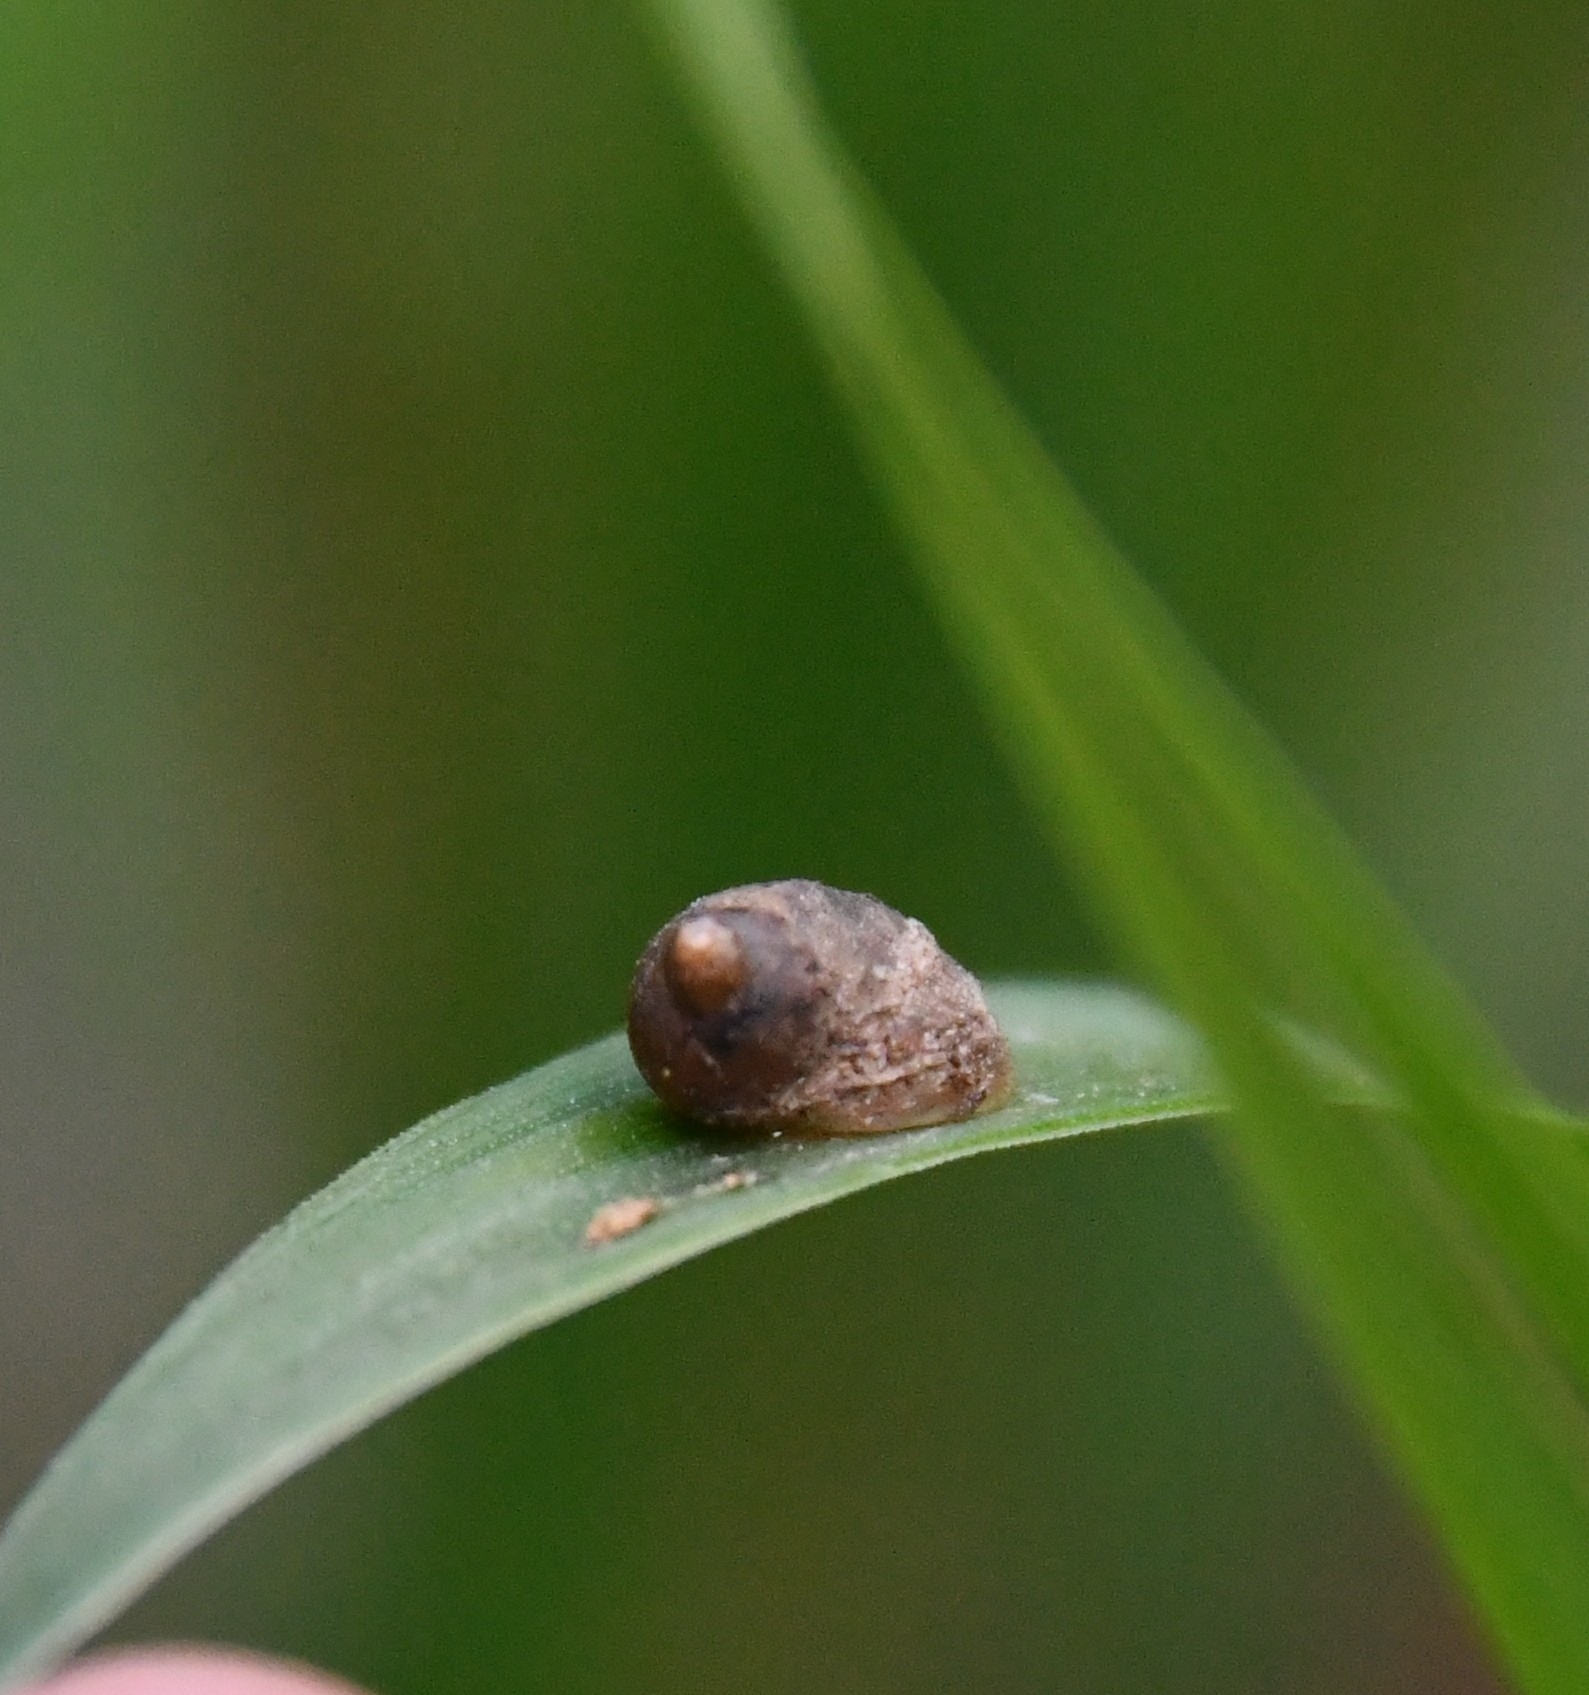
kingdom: Animalia
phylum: Mollusca
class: Gastropoda
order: Stylommatophora
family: Succineidae
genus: Succinella
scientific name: Succinella oblonga
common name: Small amber snail
